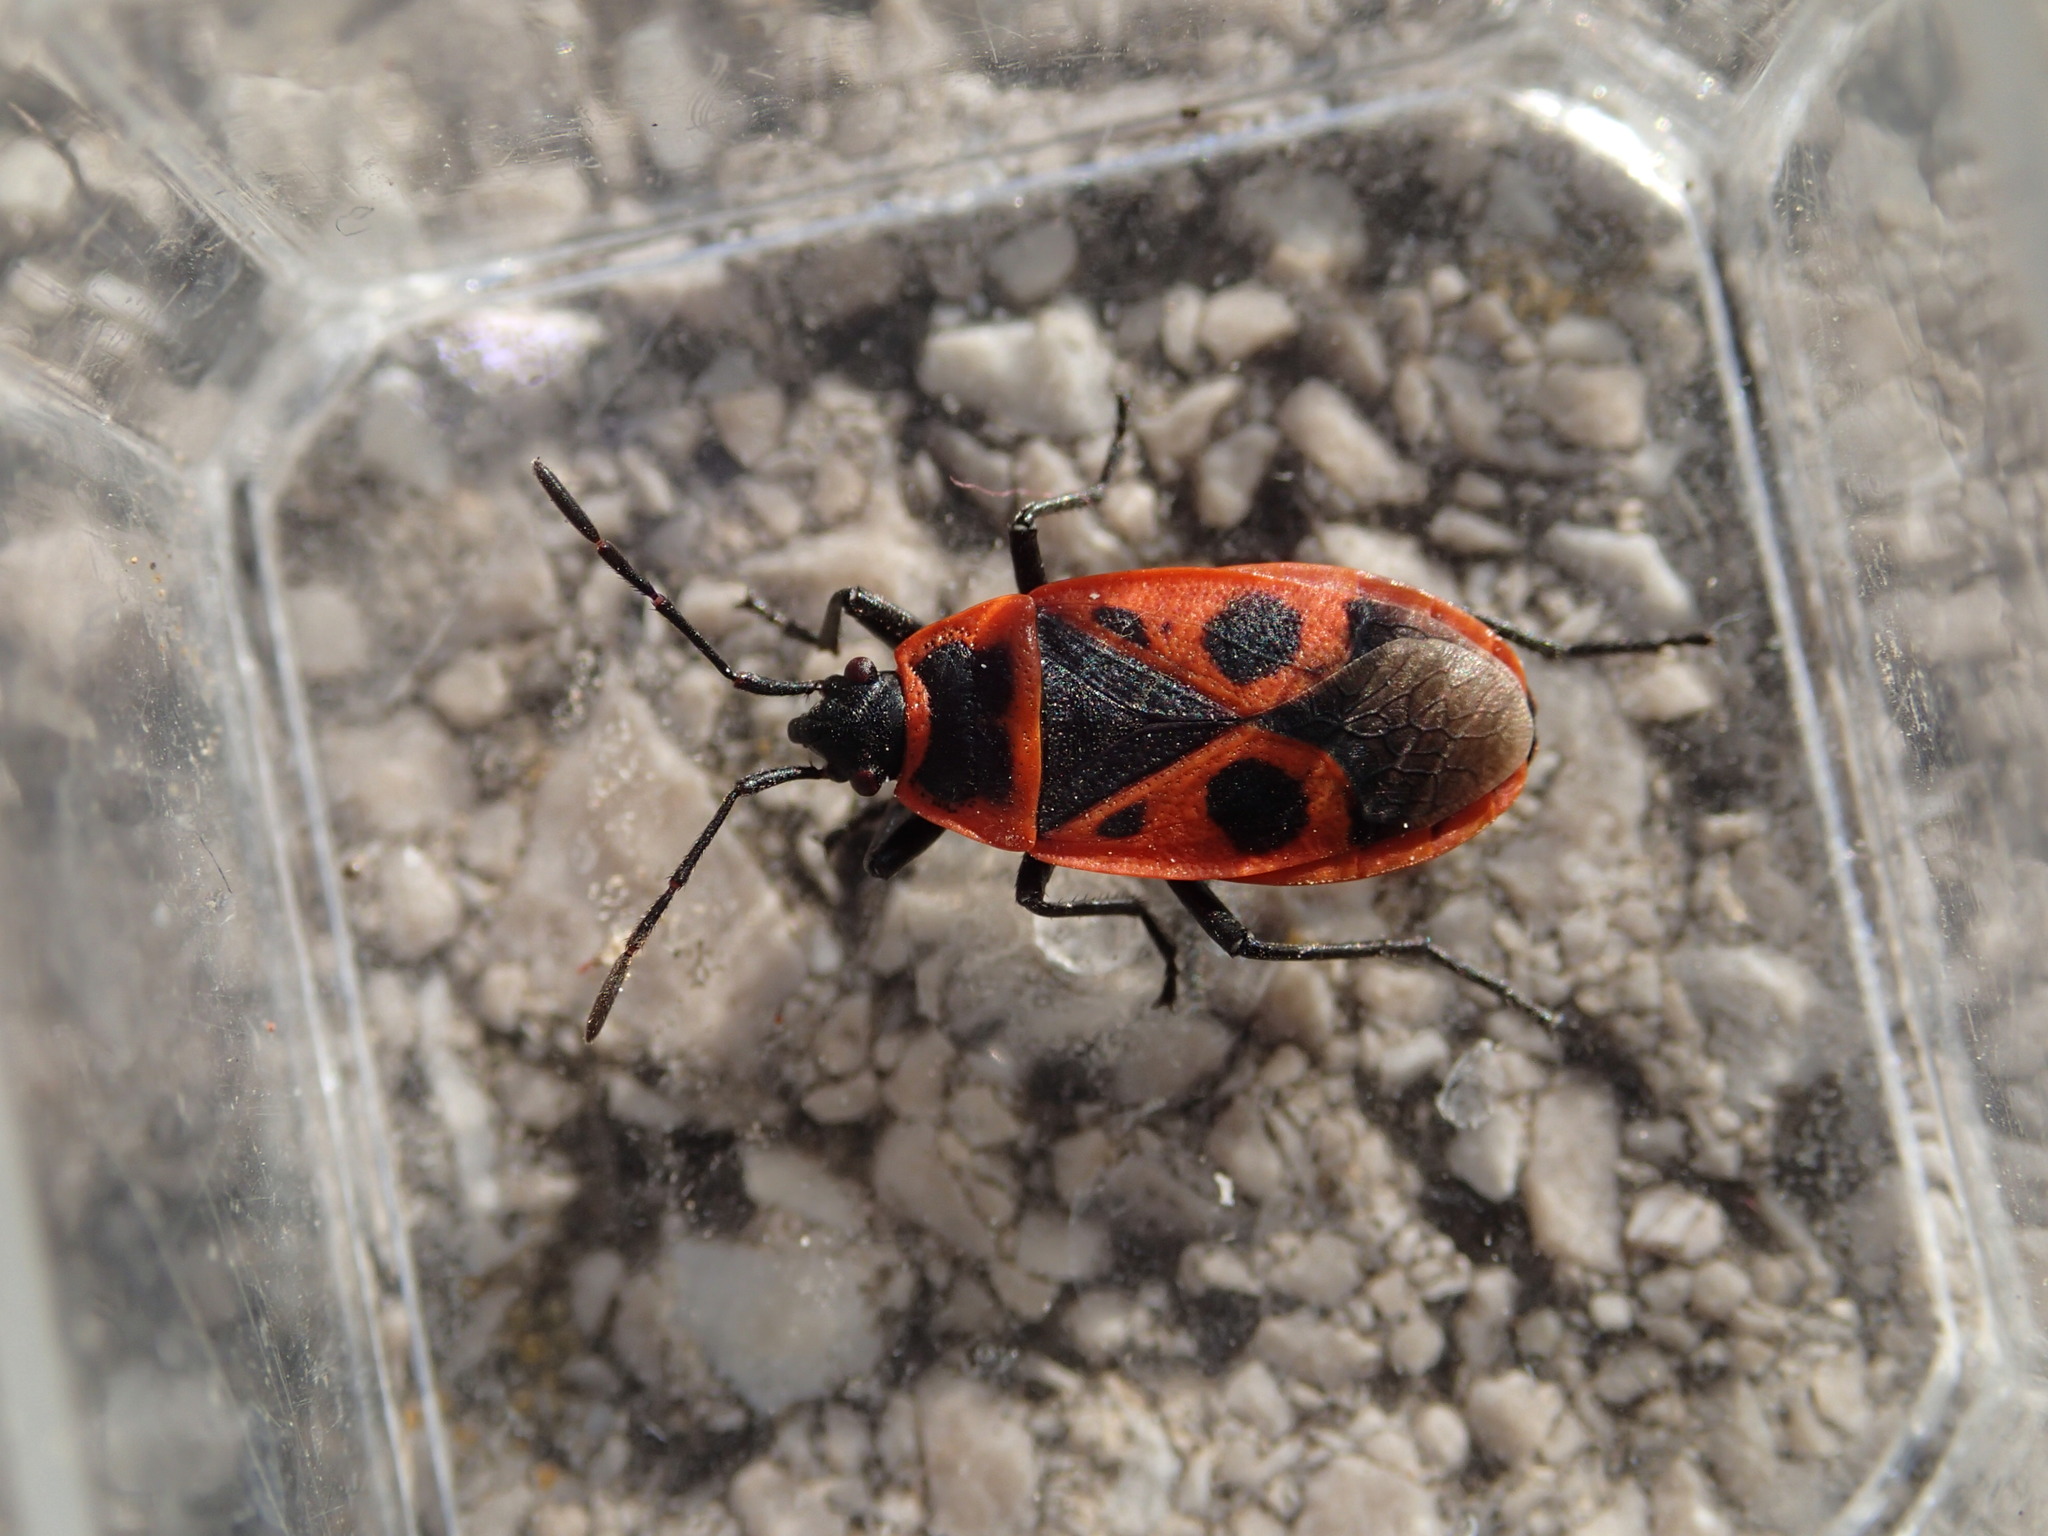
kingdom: Animalia
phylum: Arthropoda
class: Insecta
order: Hemiptera
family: Pyrrhocoridae
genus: Pyrrhocoris
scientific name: Pyrrhocoris apterus
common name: Firebug
